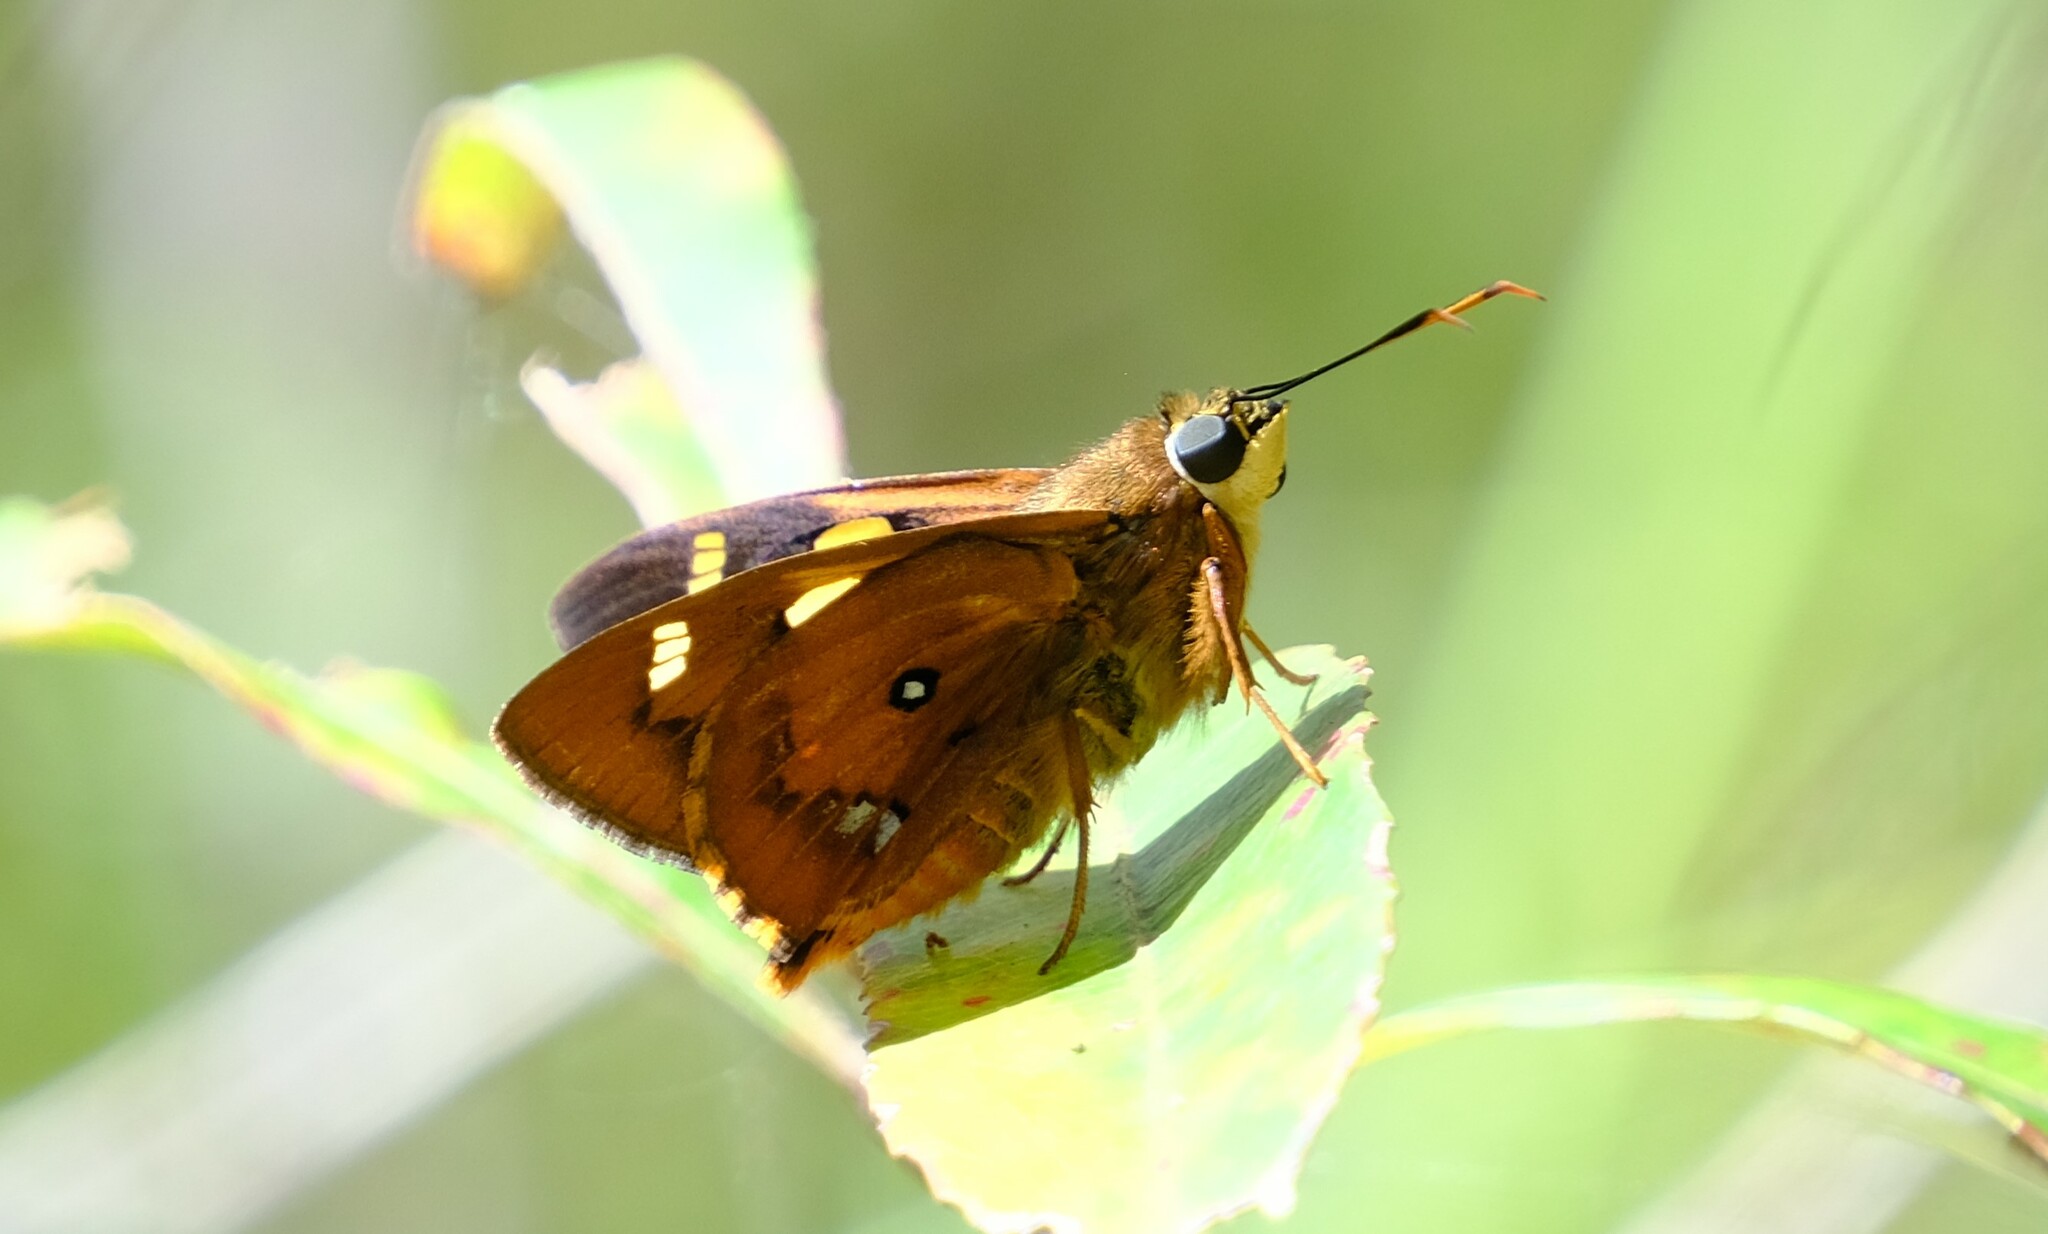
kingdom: Animalia
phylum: Arthropoda
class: Insecta
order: Lepidoptera
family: Hesperiidae
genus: Trapezites
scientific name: Trapezites symmomus
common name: Splendid ochre
